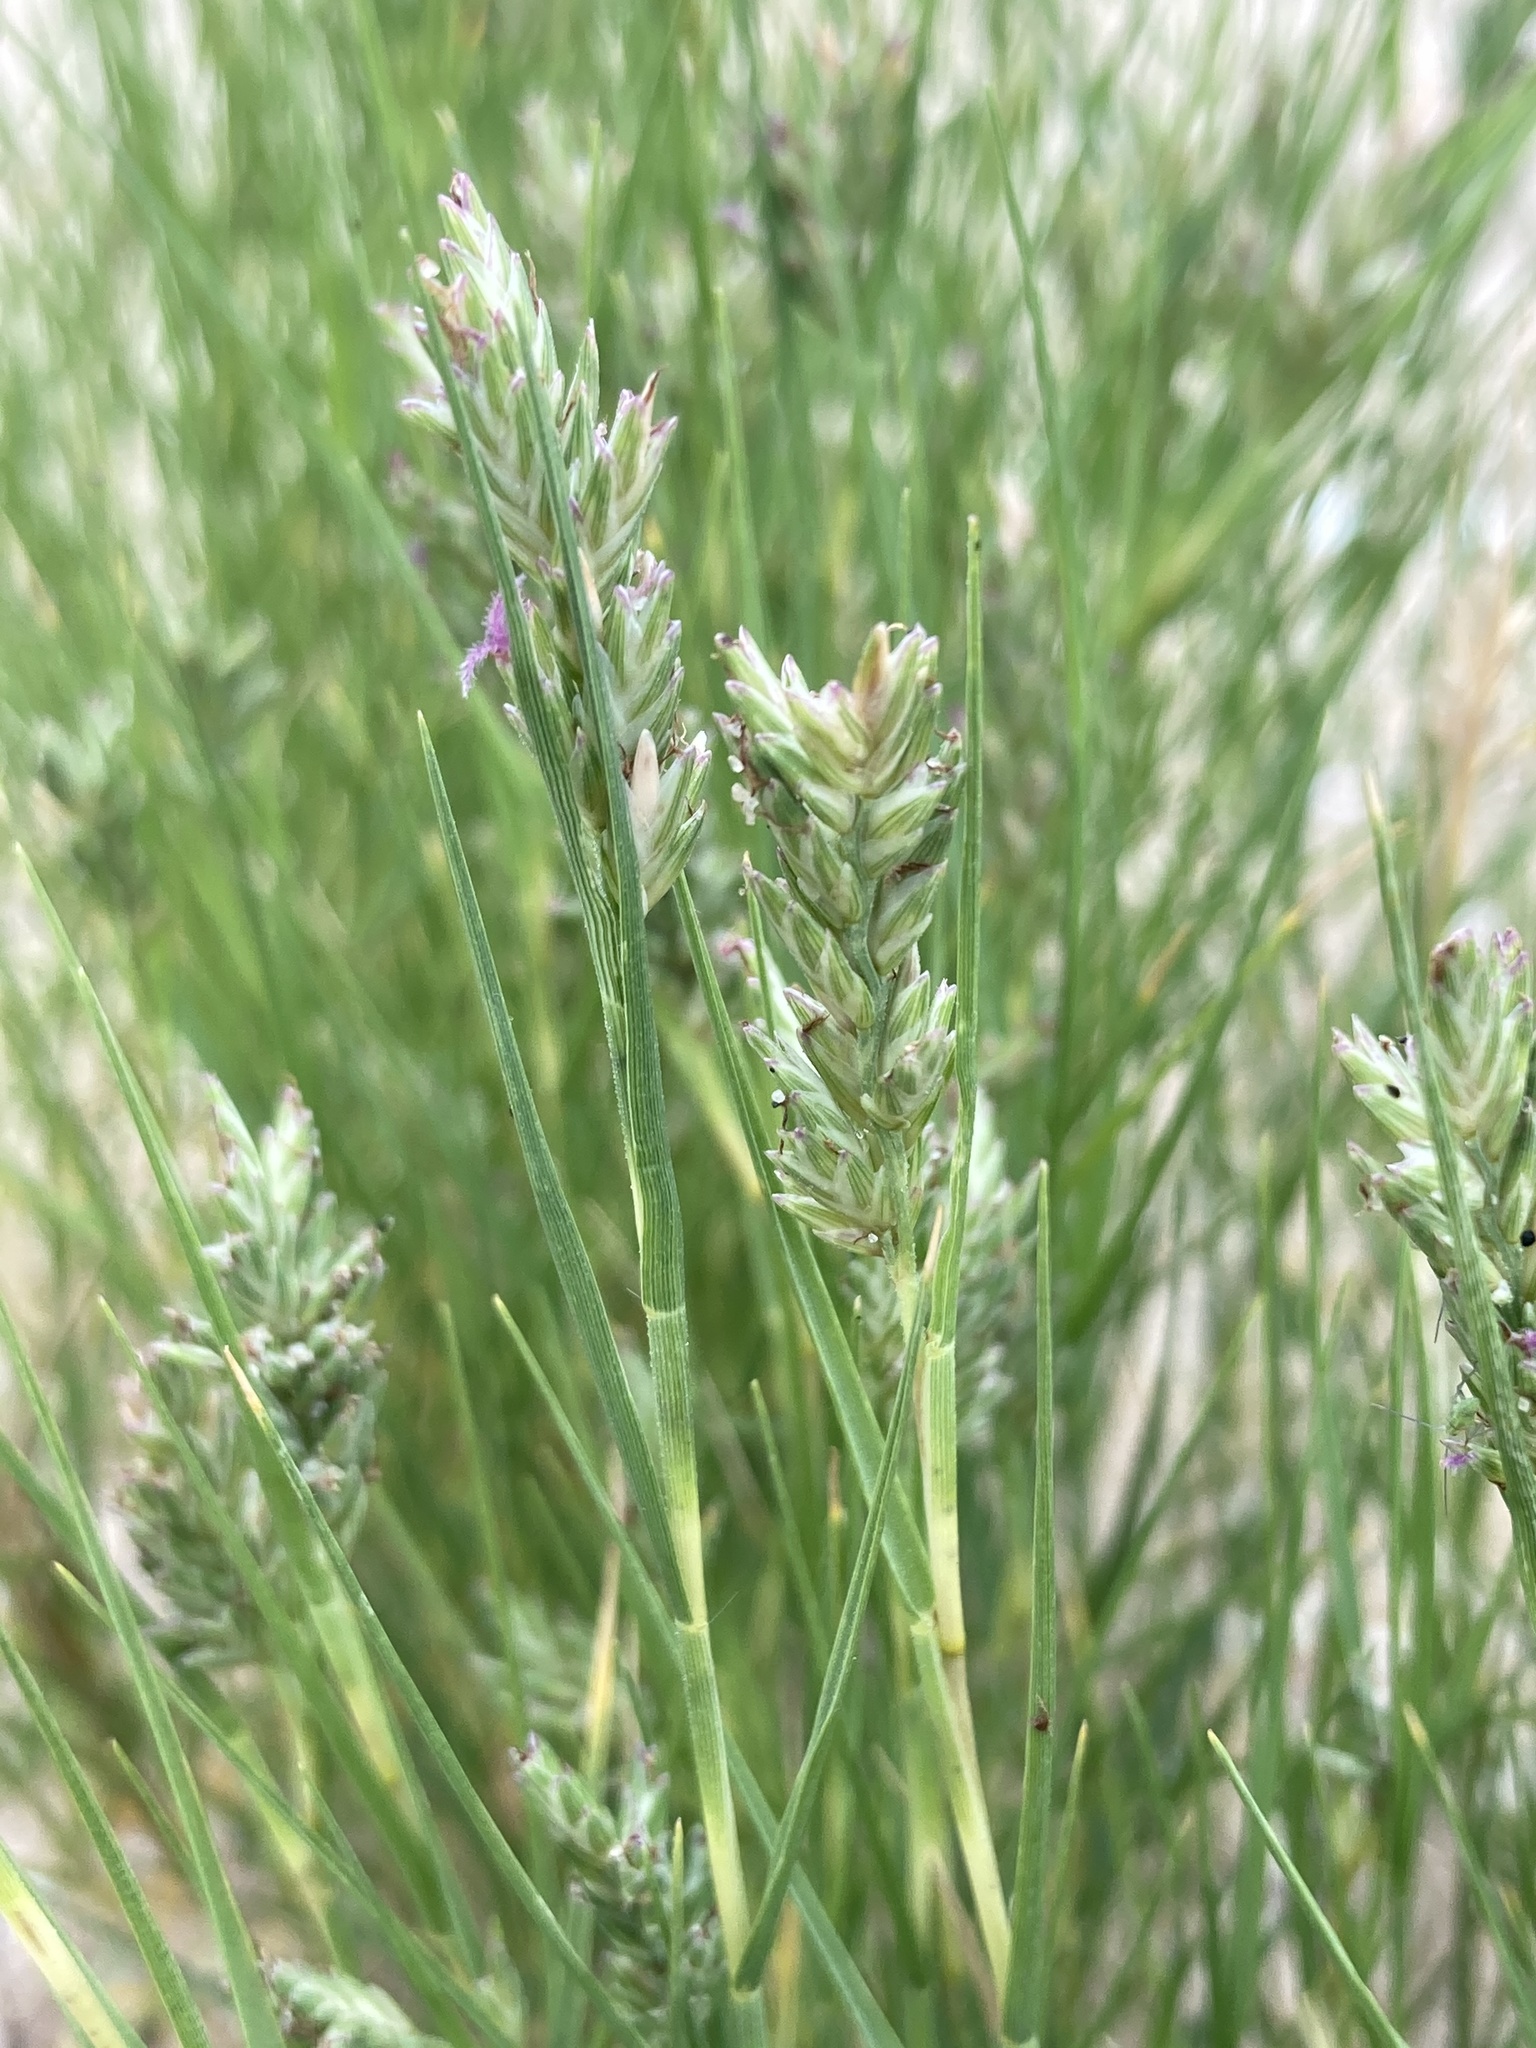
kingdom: Plantae
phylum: Tracheophyta
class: Liliopsida
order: Poales
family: Poaceae
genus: Distichlis
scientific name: Distichlis spicata
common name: Saltgrass
